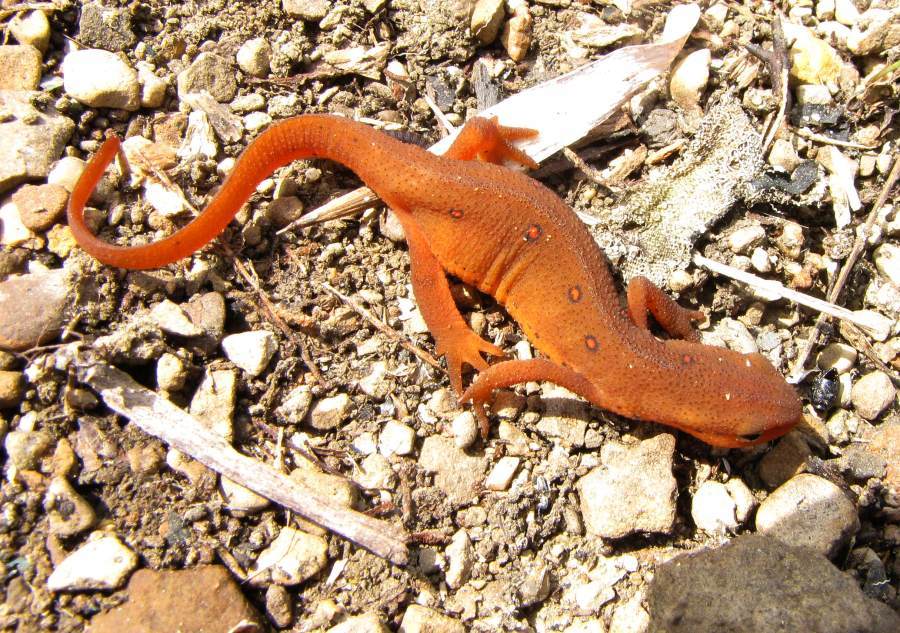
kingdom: Animalia
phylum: Chordata
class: Amphibia
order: Caudata
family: Salamandridae
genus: Notophthalmus
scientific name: Notophthalmus viridescens
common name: Eastern newt
